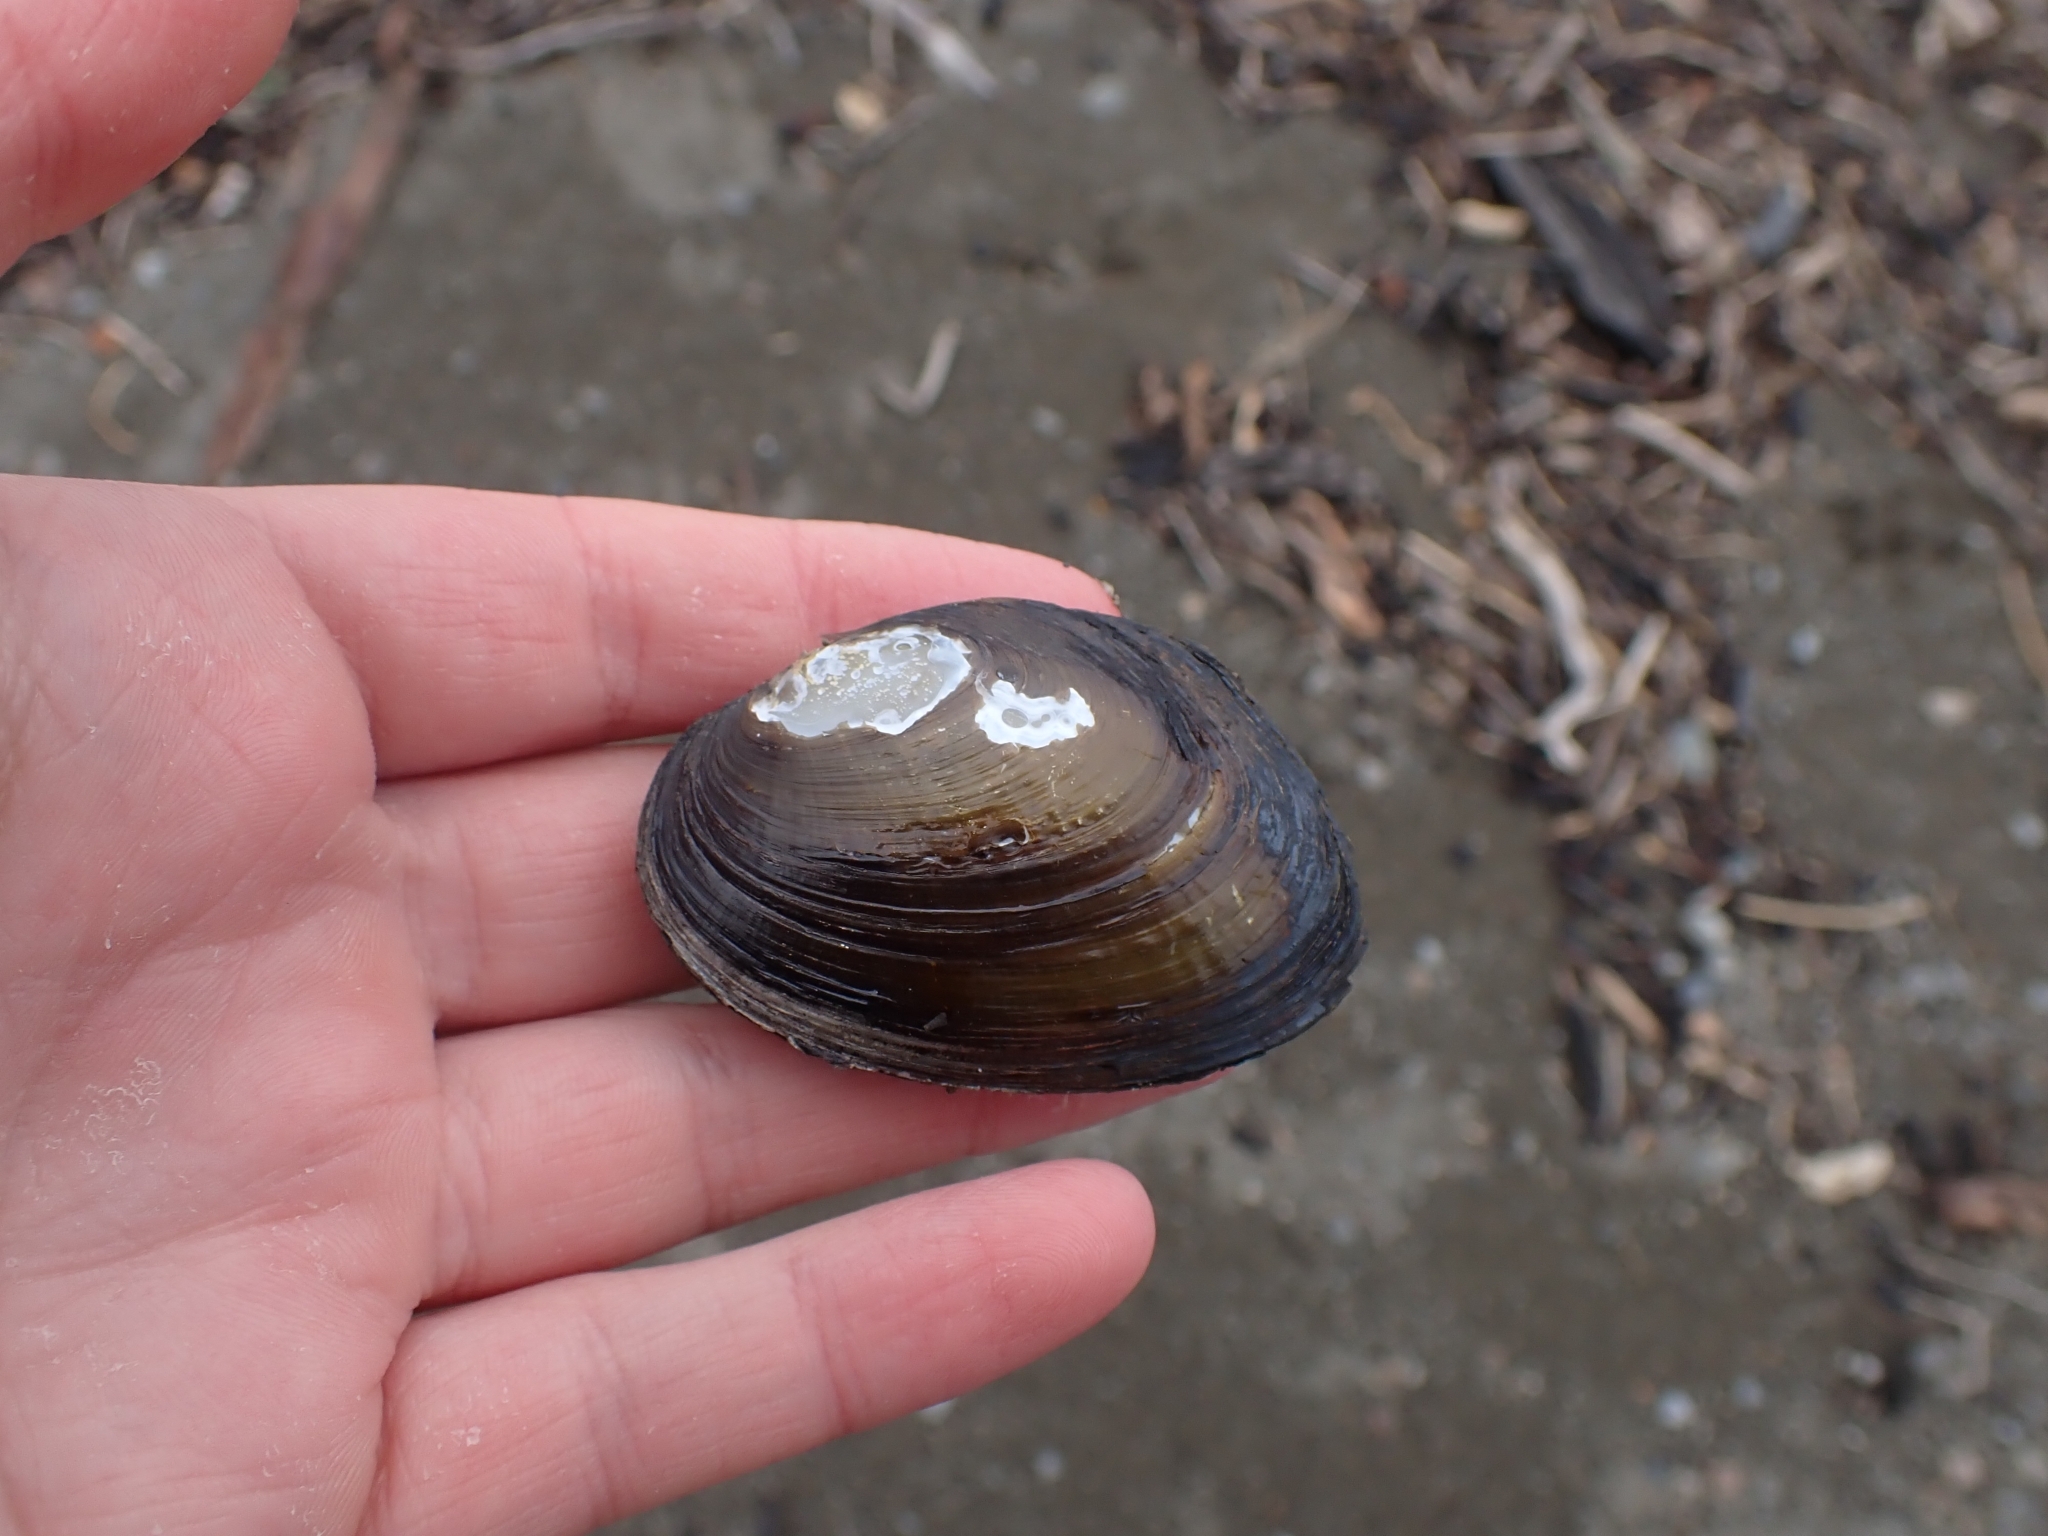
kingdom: Animalia
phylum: Mollusca
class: Bivalvia
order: Unionida
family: Hyriidae
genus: Echyridella
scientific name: Echyridella menziesii
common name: New zealand freshwater mussel
